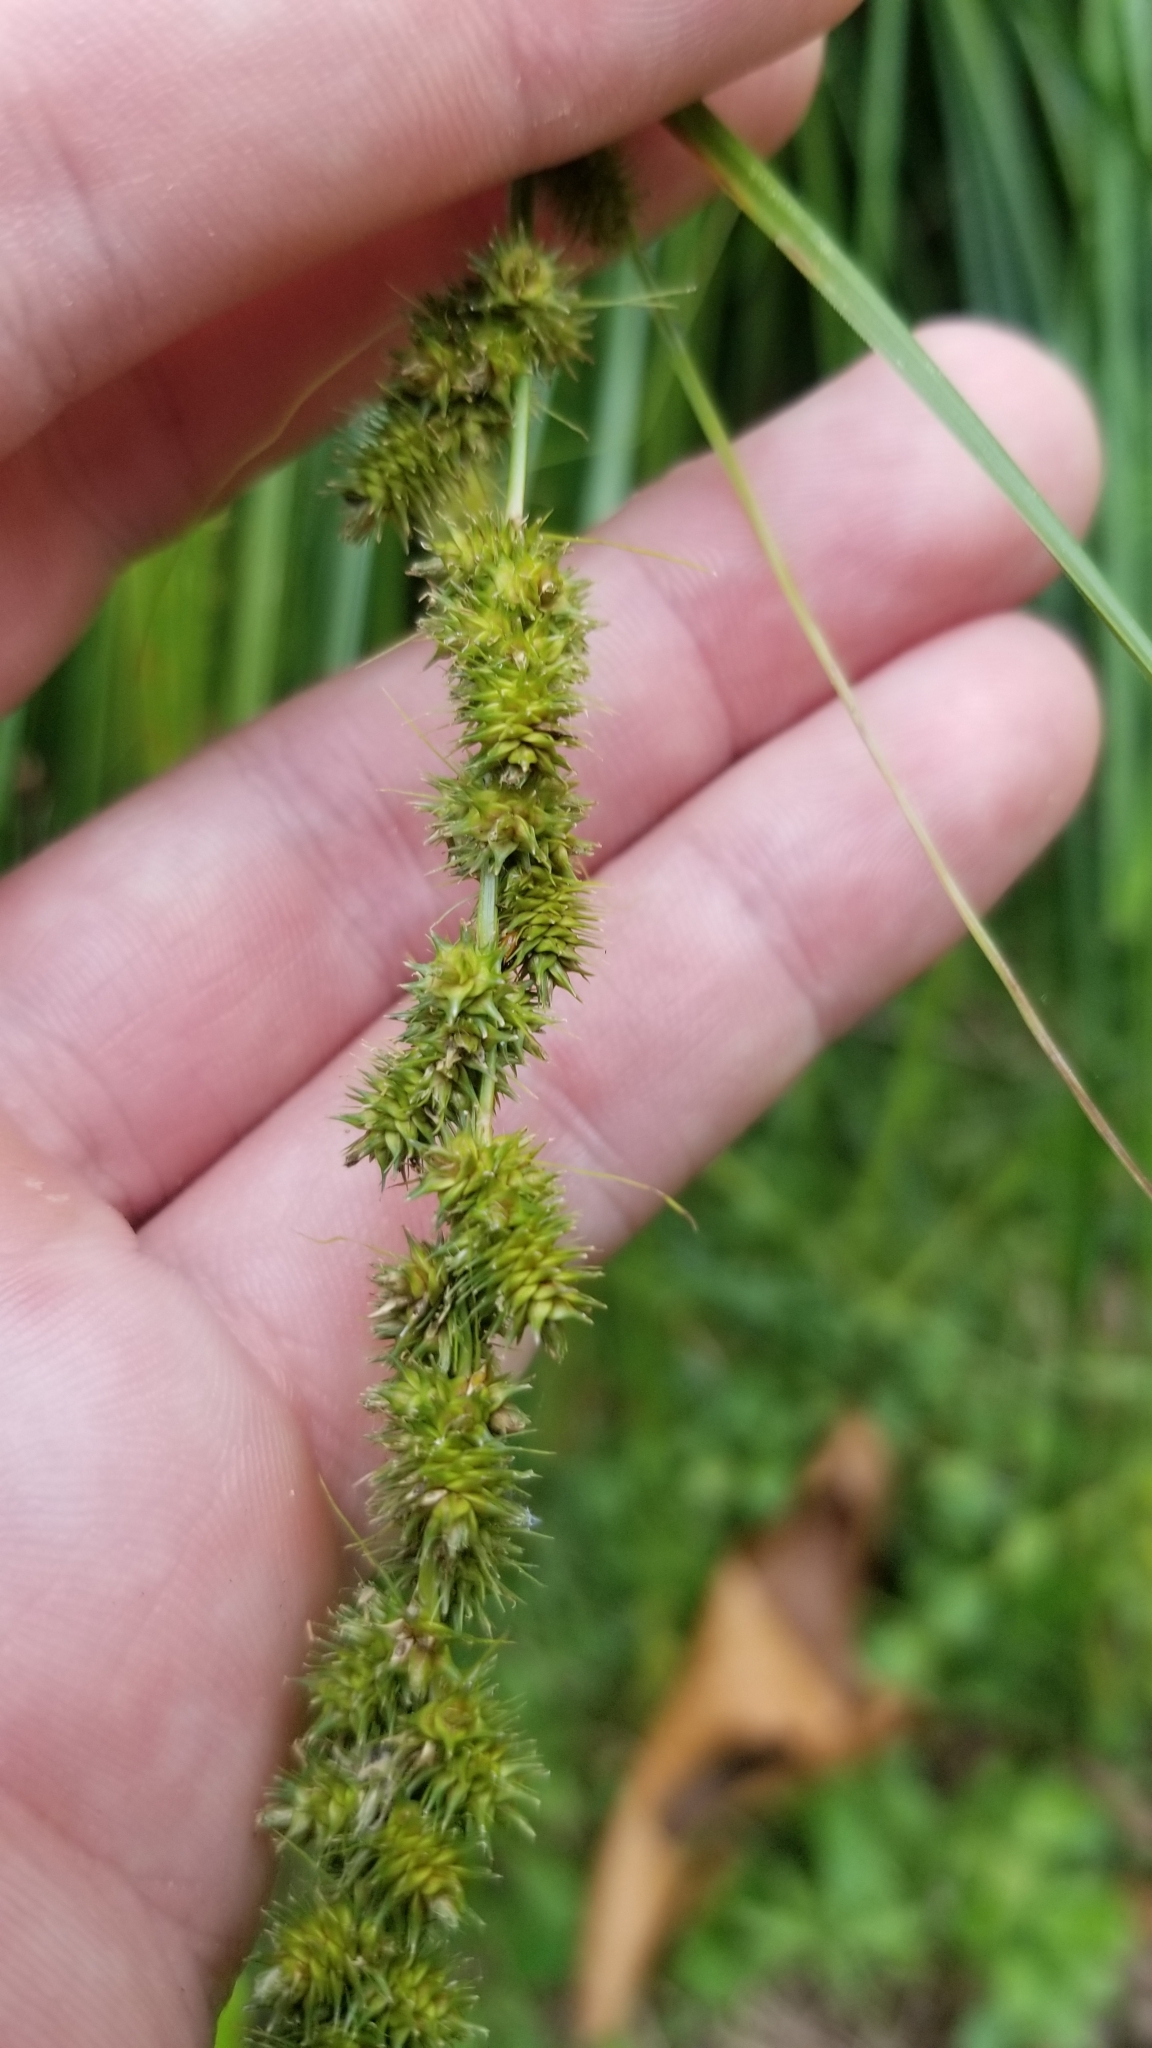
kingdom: Plantae
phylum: Tracheophyta
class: Liliopsida
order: Poales
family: Cyperaceae
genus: Carex
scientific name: Carex vulpinoidea
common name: American fox-sedge
